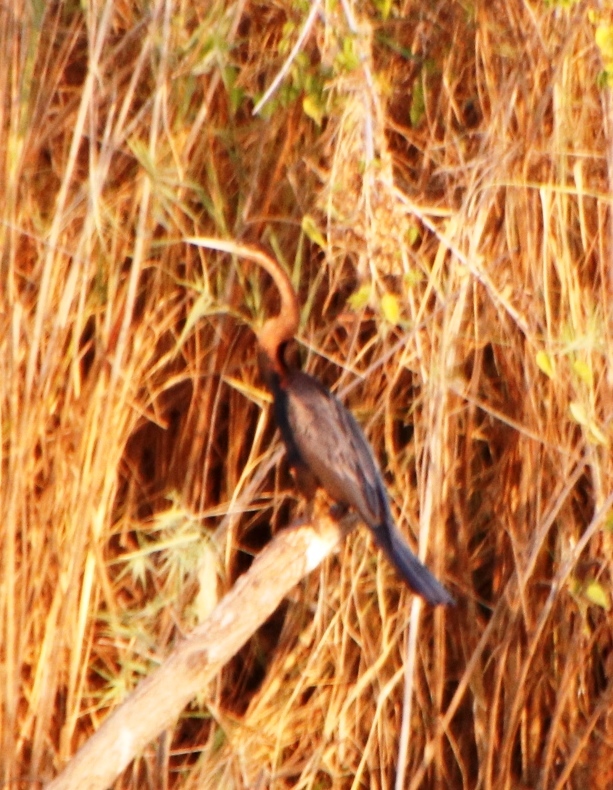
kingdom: Animalia
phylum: Chordata
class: Aves
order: Suliformes
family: Anhingidae
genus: Anhinga
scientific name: Anhinga rufa
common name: African darter
